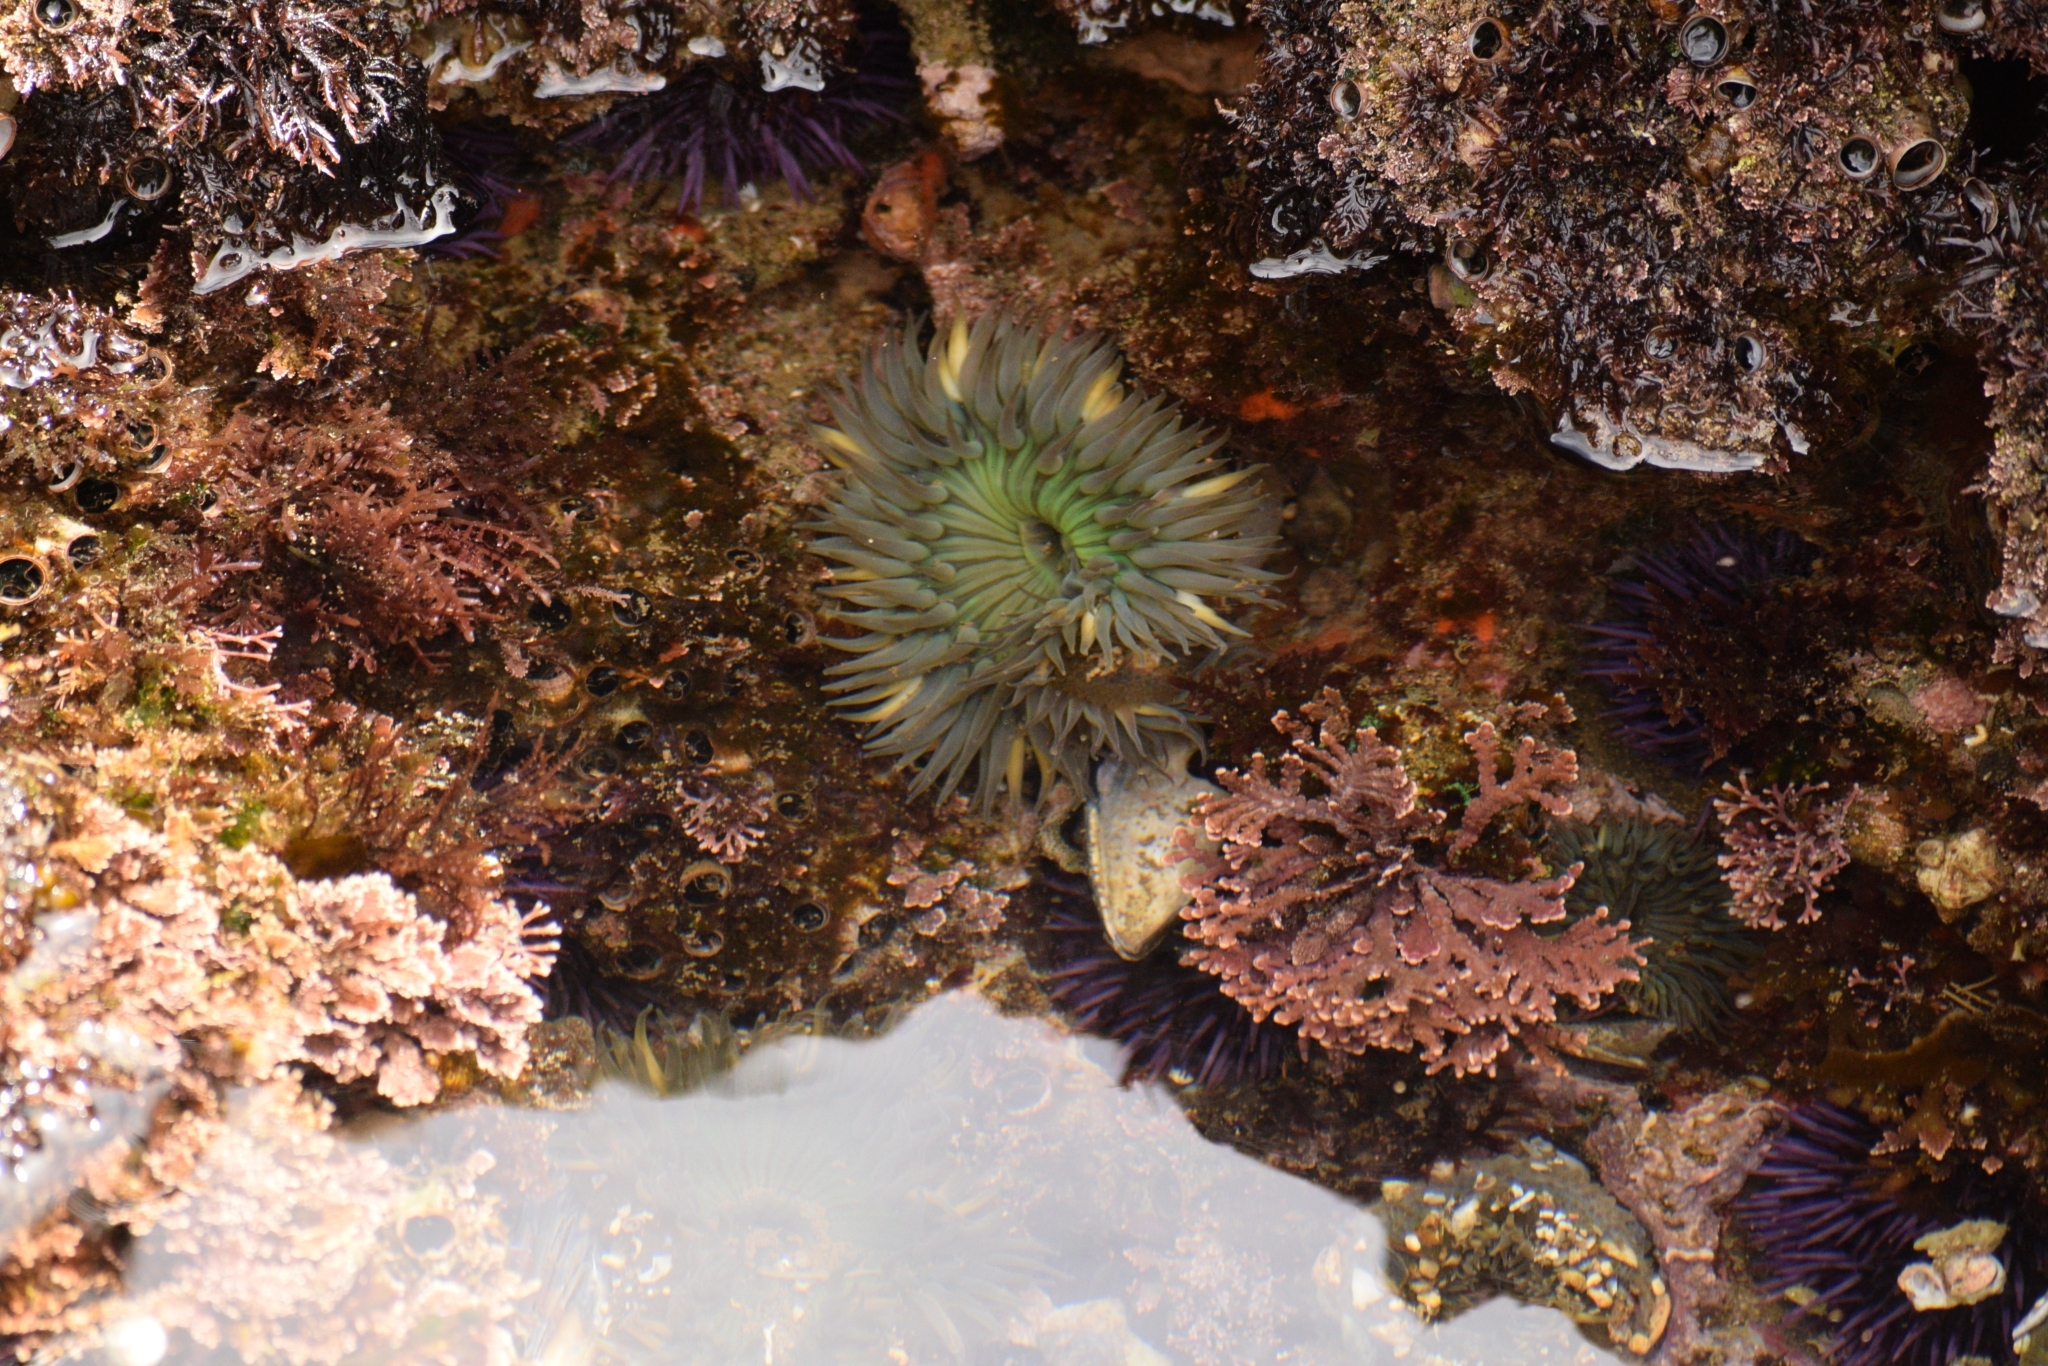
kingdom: Animalia
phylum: Cnidaria
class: Anthozoa
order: Actiniaria
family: Actiniidae
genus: Anthopleura
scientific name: Anthopleura sola
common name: Sun anemone
